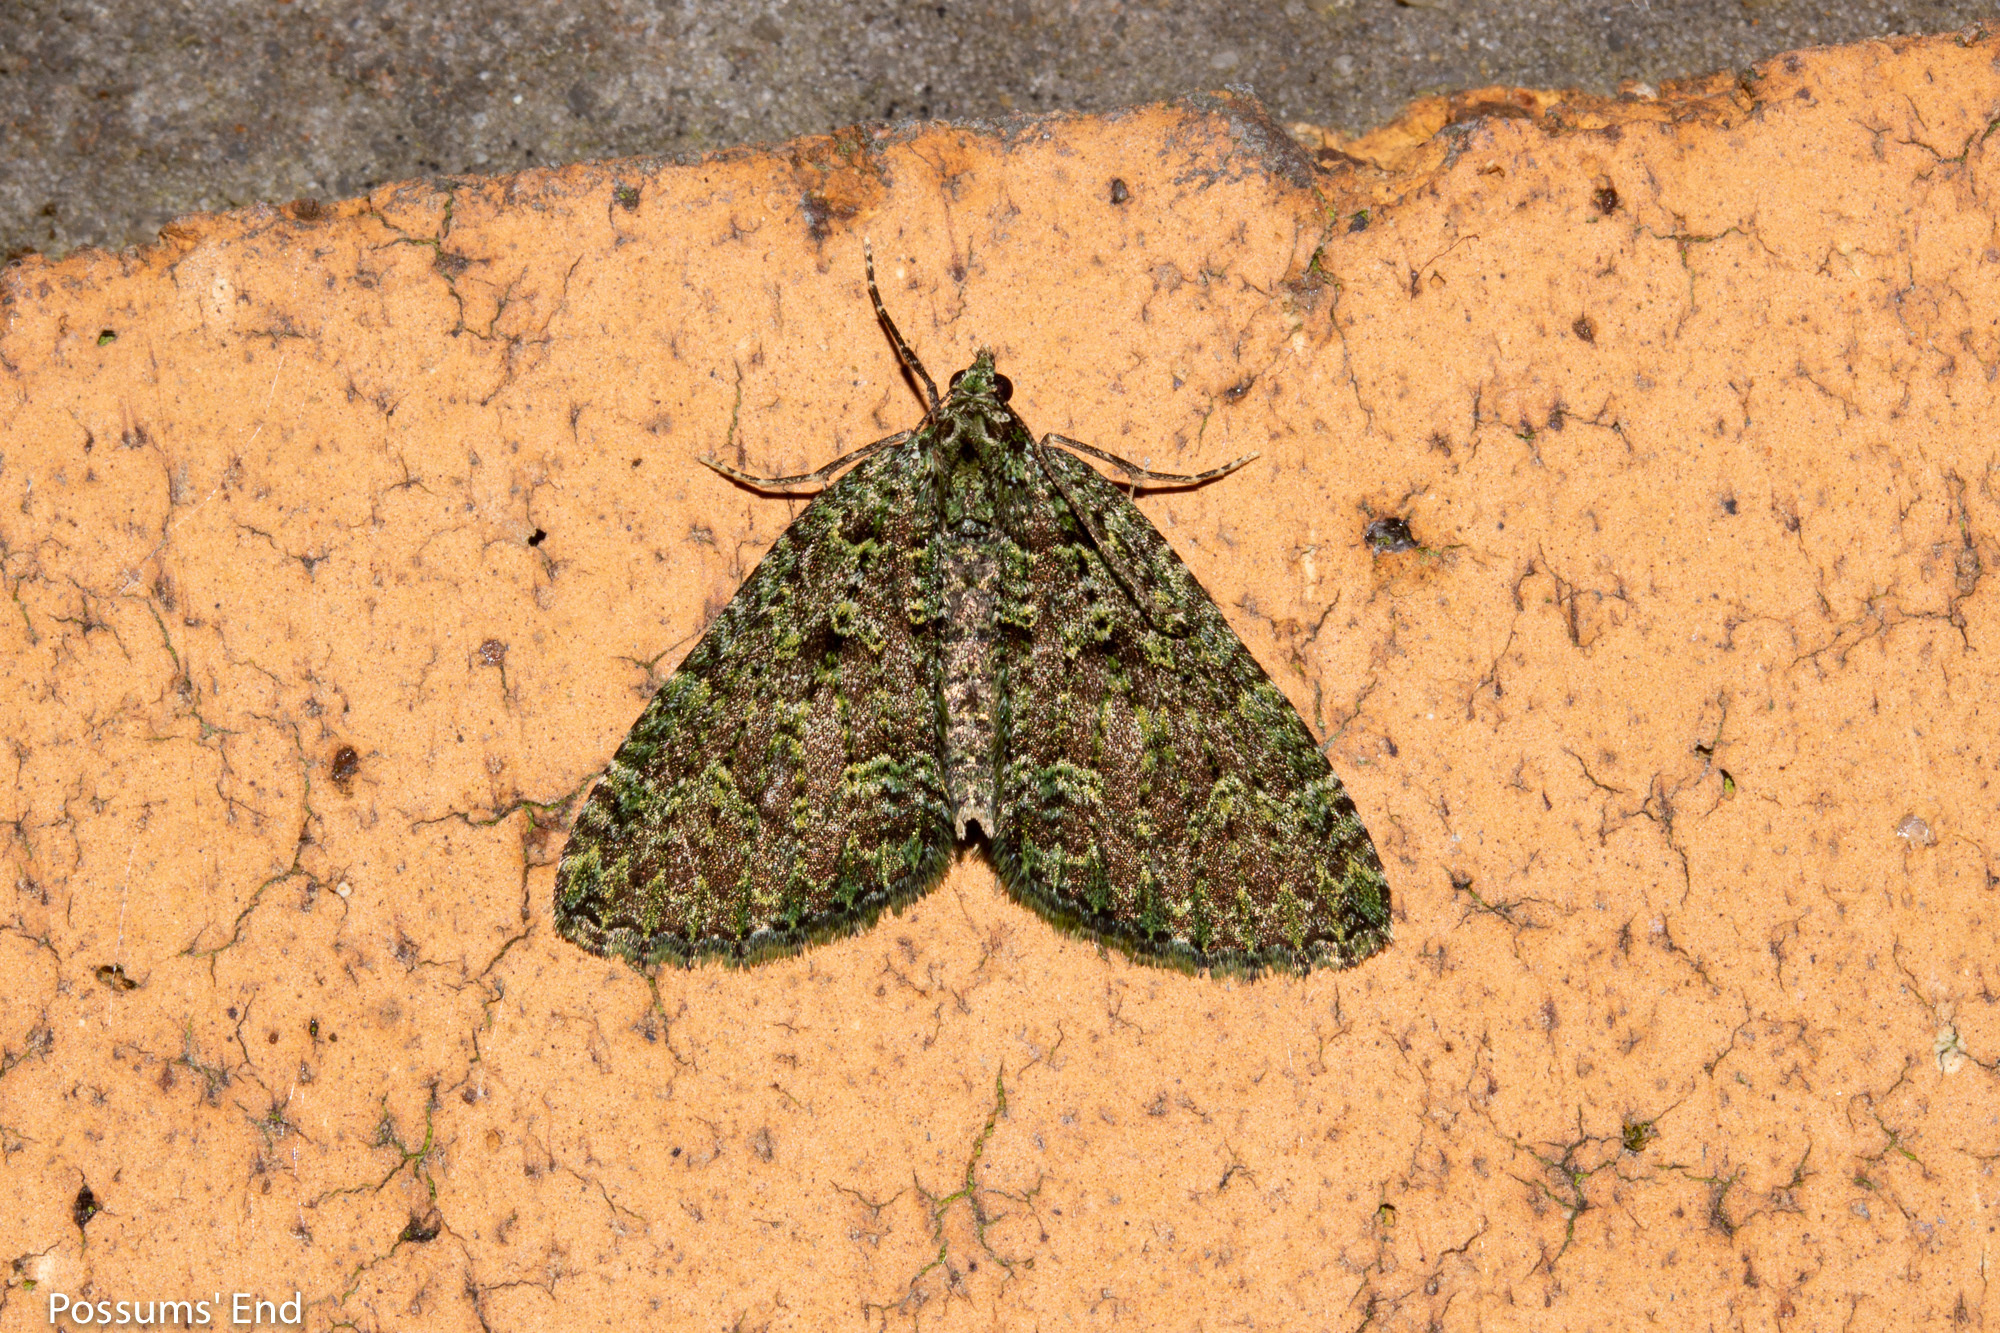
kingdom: Animalia
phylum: Arthropoda
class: Insecta
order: Lepidoptera
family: Geometridae
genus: Austrocidaria
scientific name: Austrocidaria callichlora
